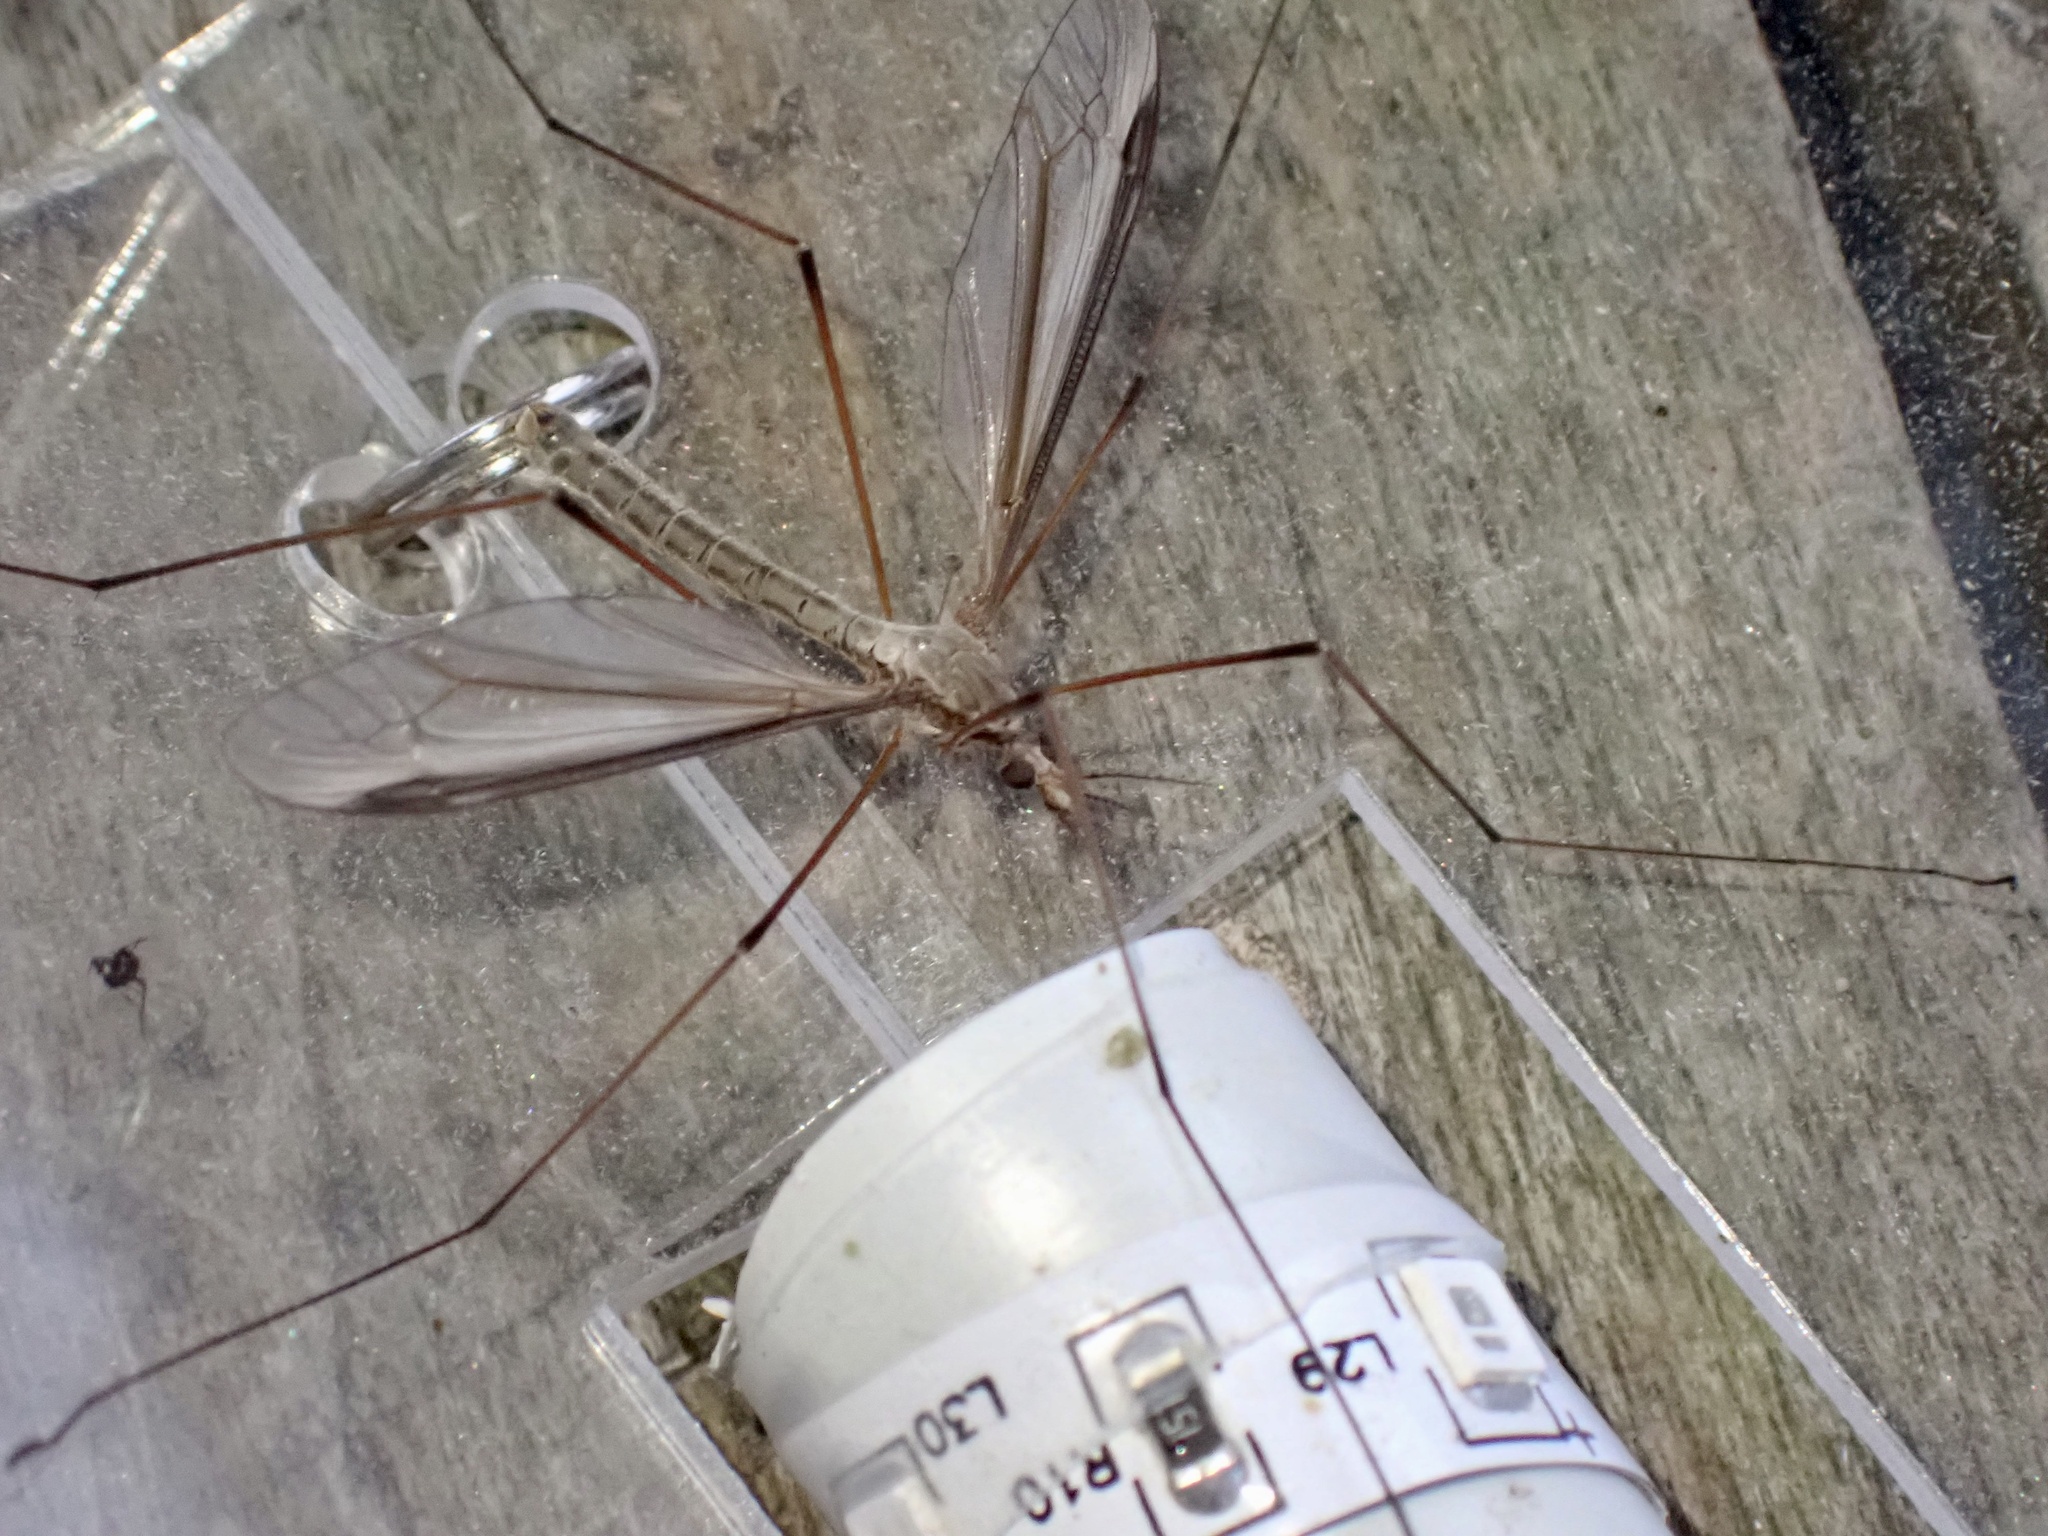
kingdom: Animalia
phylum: Arthropoda
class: Insecta
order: Diptera
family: Tipulidae
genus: Tipula
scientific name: Tipula oleracea
